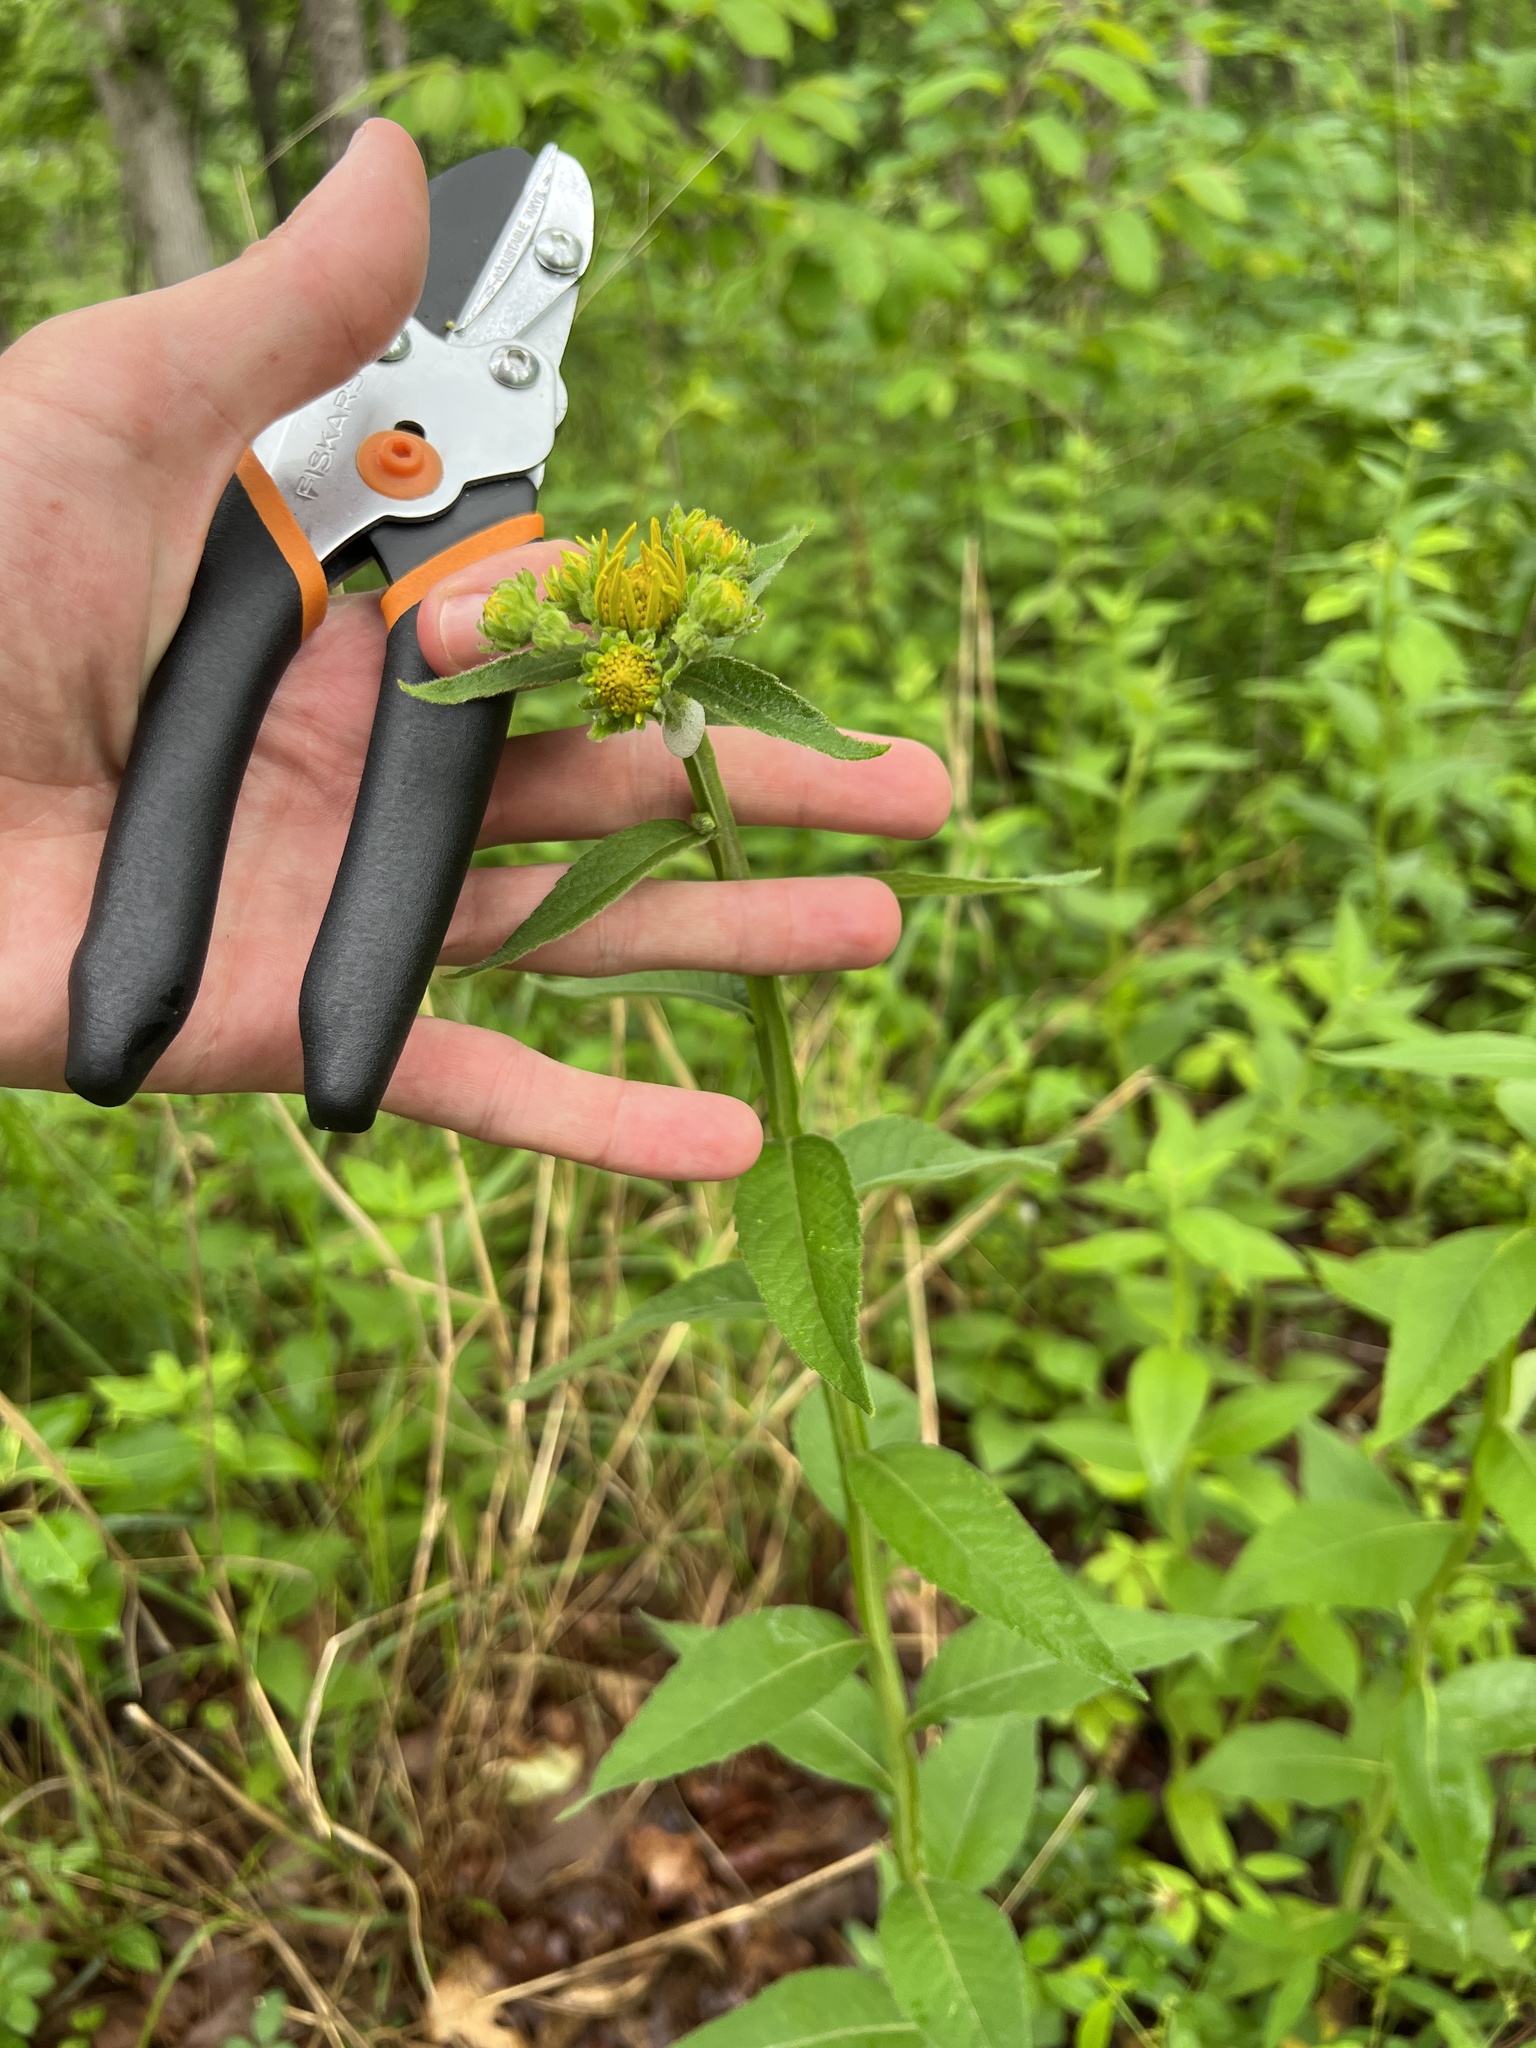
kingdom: Plantae
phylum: Tracheophyta
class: Magnoliopsida
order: Asterales
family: Asteraceae
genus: Verbesina
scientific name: Verbesina helianthoides
